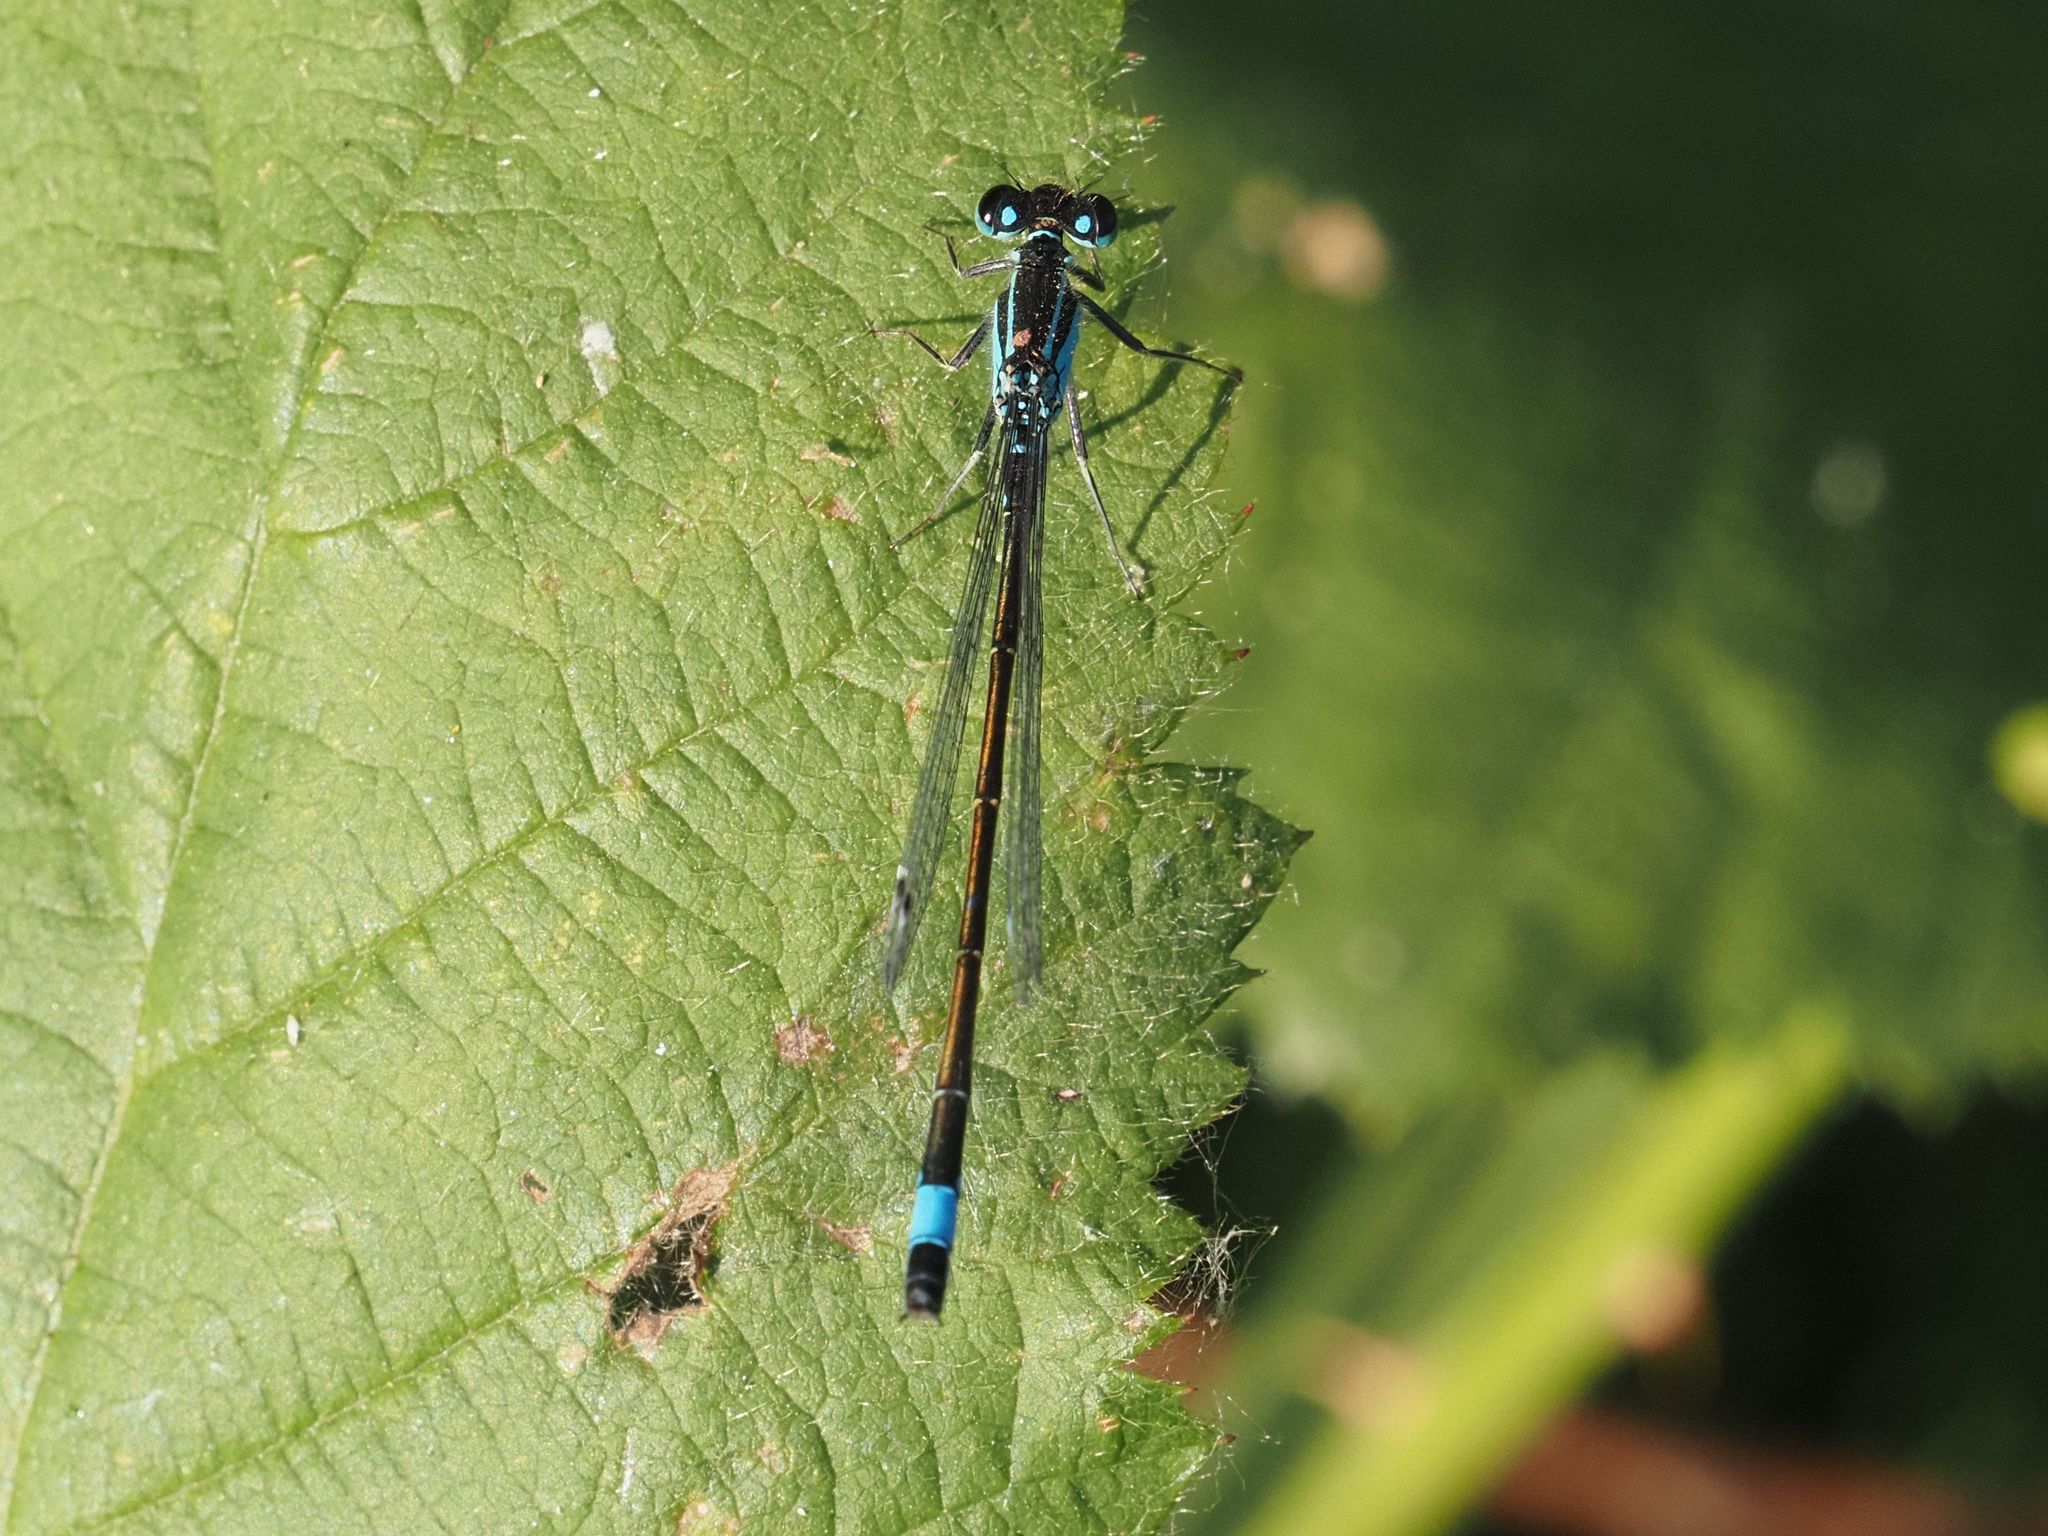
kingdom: Animalia
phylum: Arthropoda
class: Insecta
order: Odonata
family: Coenagrionidae
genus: Ischnura
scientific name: Ischnura elegans
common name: Blue-tailed damselfly
